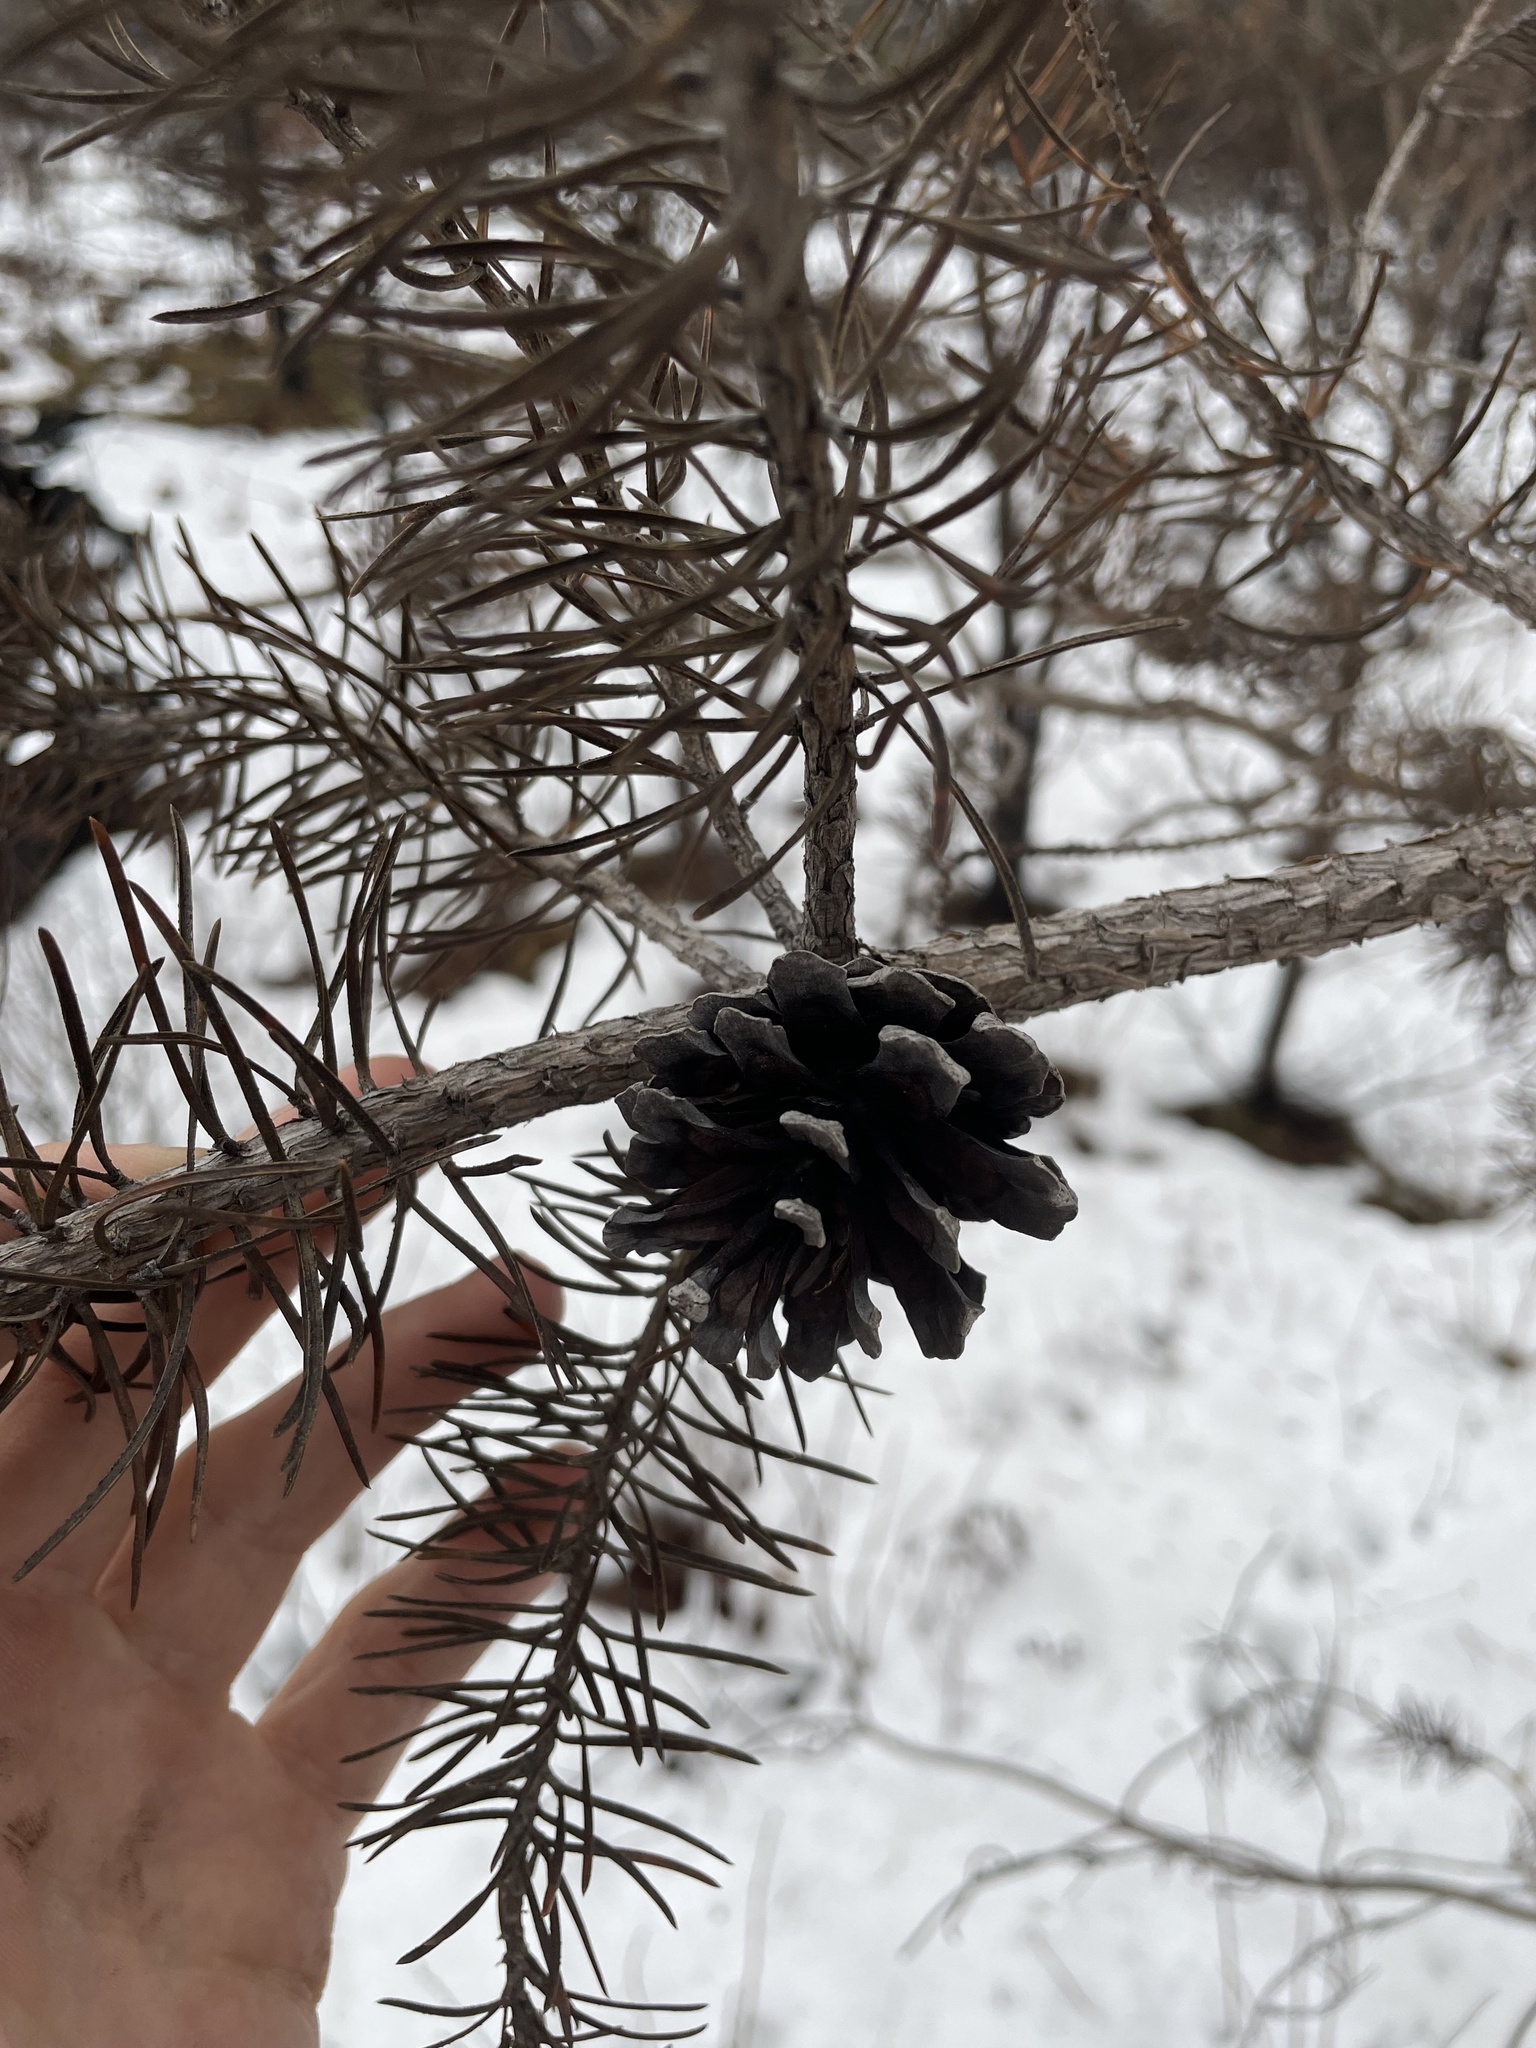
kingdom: Plantae
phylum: Tracheophyta
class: Pinopsida
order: Pinales
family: Pinaceae
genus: Pinus
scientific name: Pinus banksiana
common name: Jack pine
